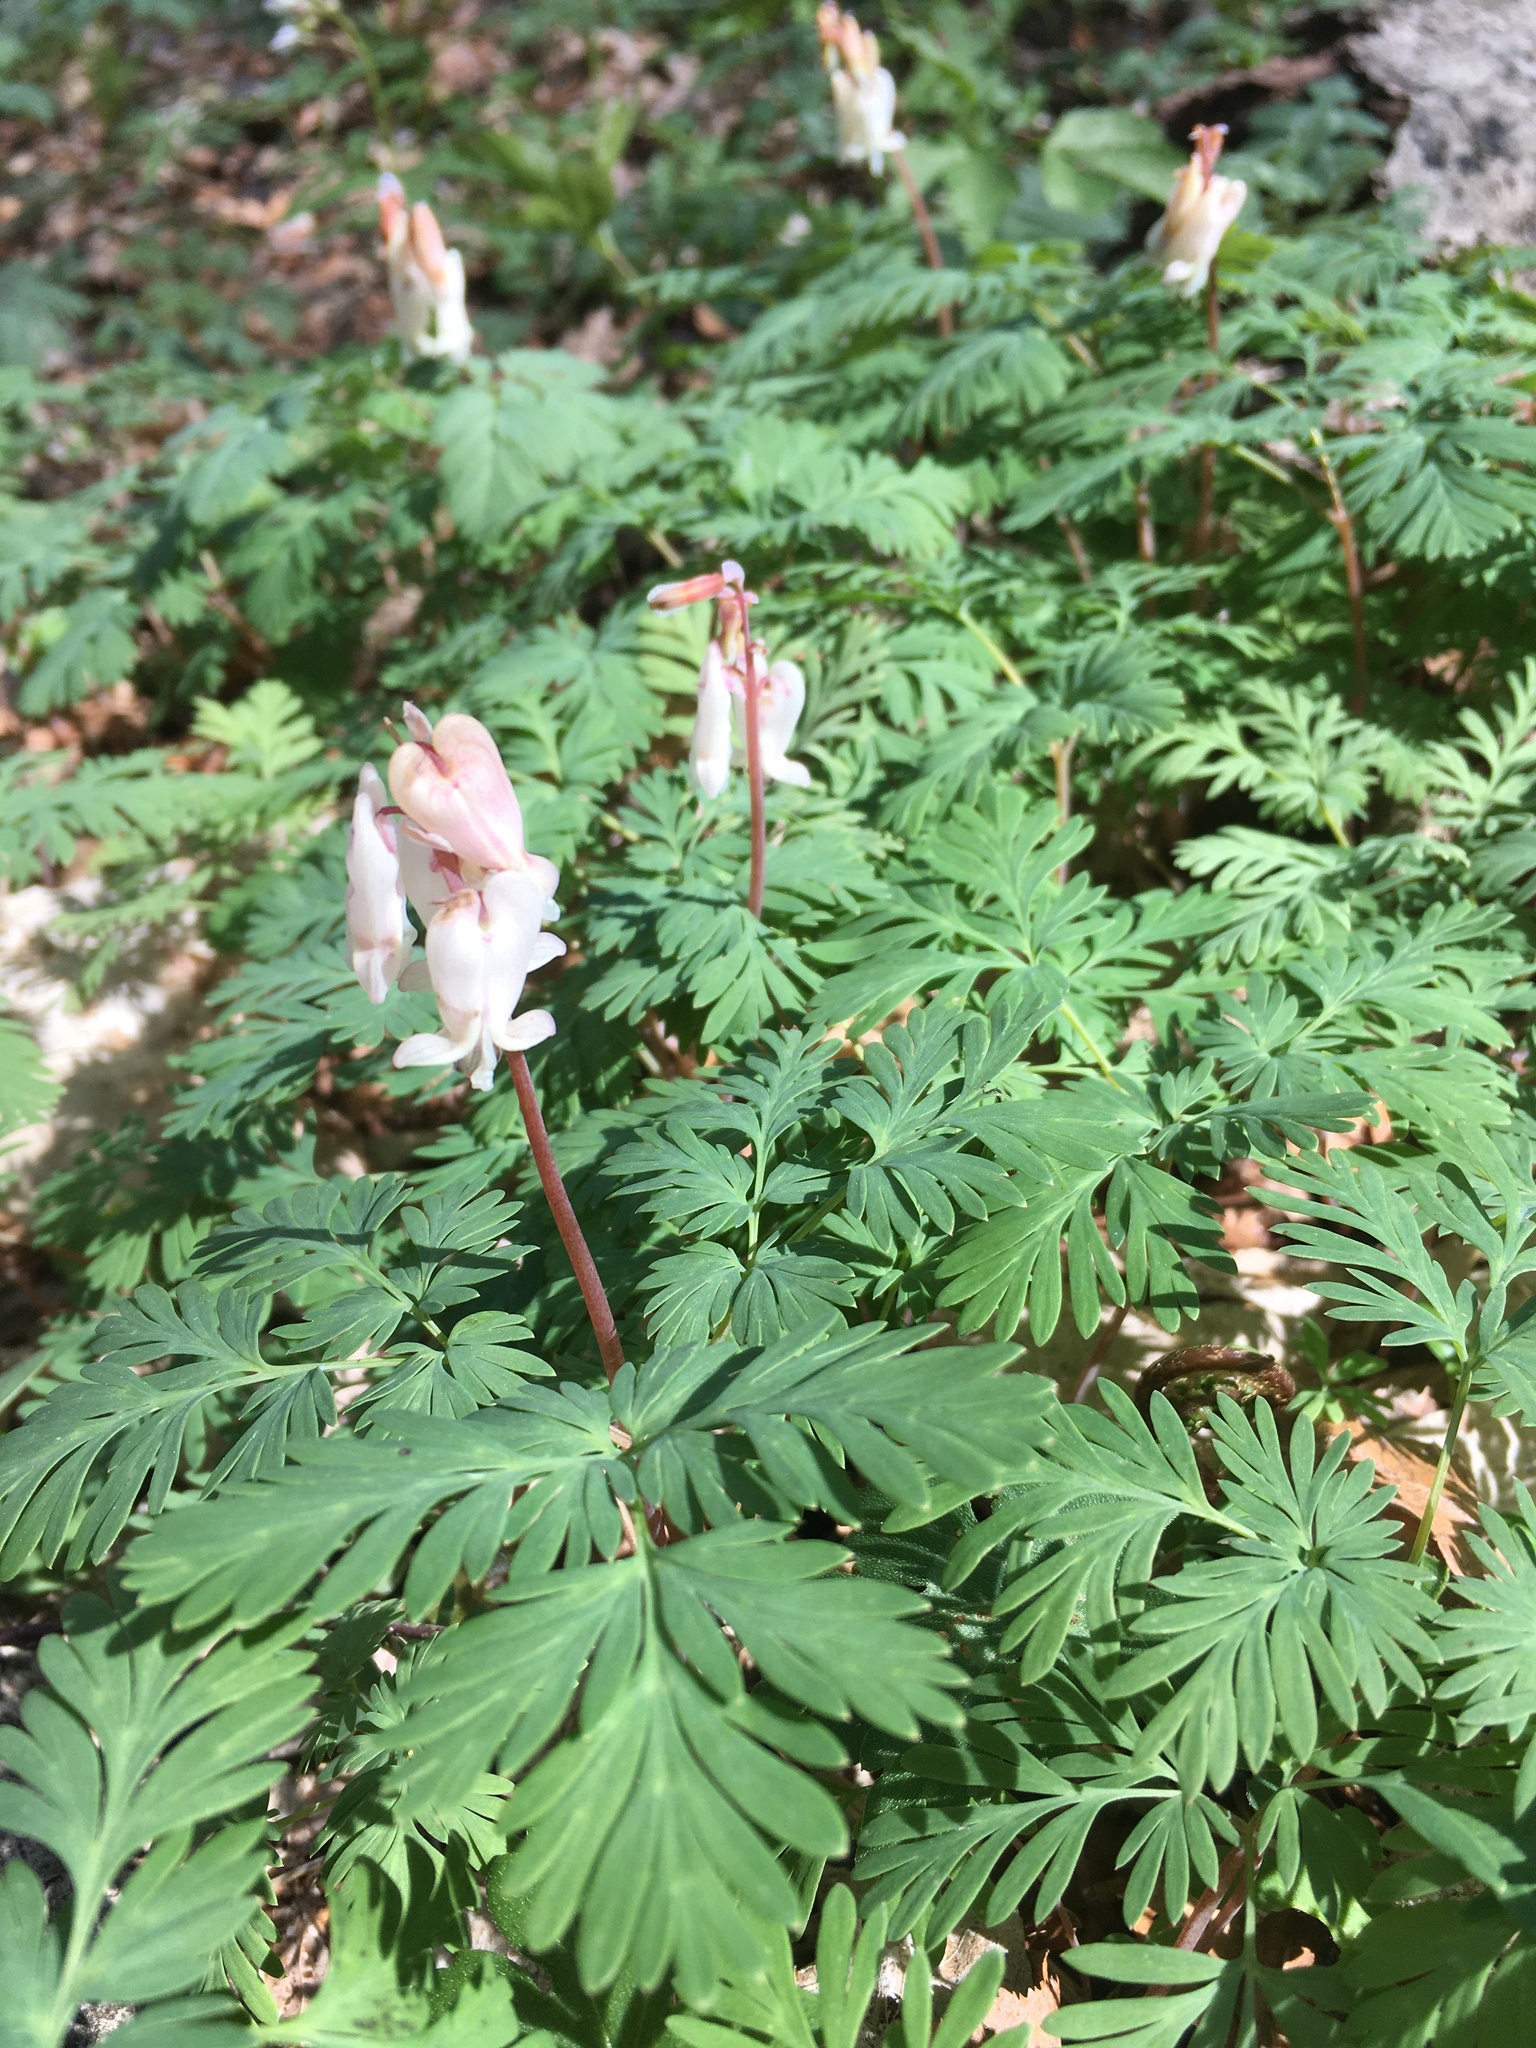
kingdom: Plantae
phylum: Tracheophyta
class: Magnoliopsida
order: Ranunculales
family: Papaveraceae
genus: Dicentra
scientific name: Dicentra canadensis
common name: Squirrel-corn
